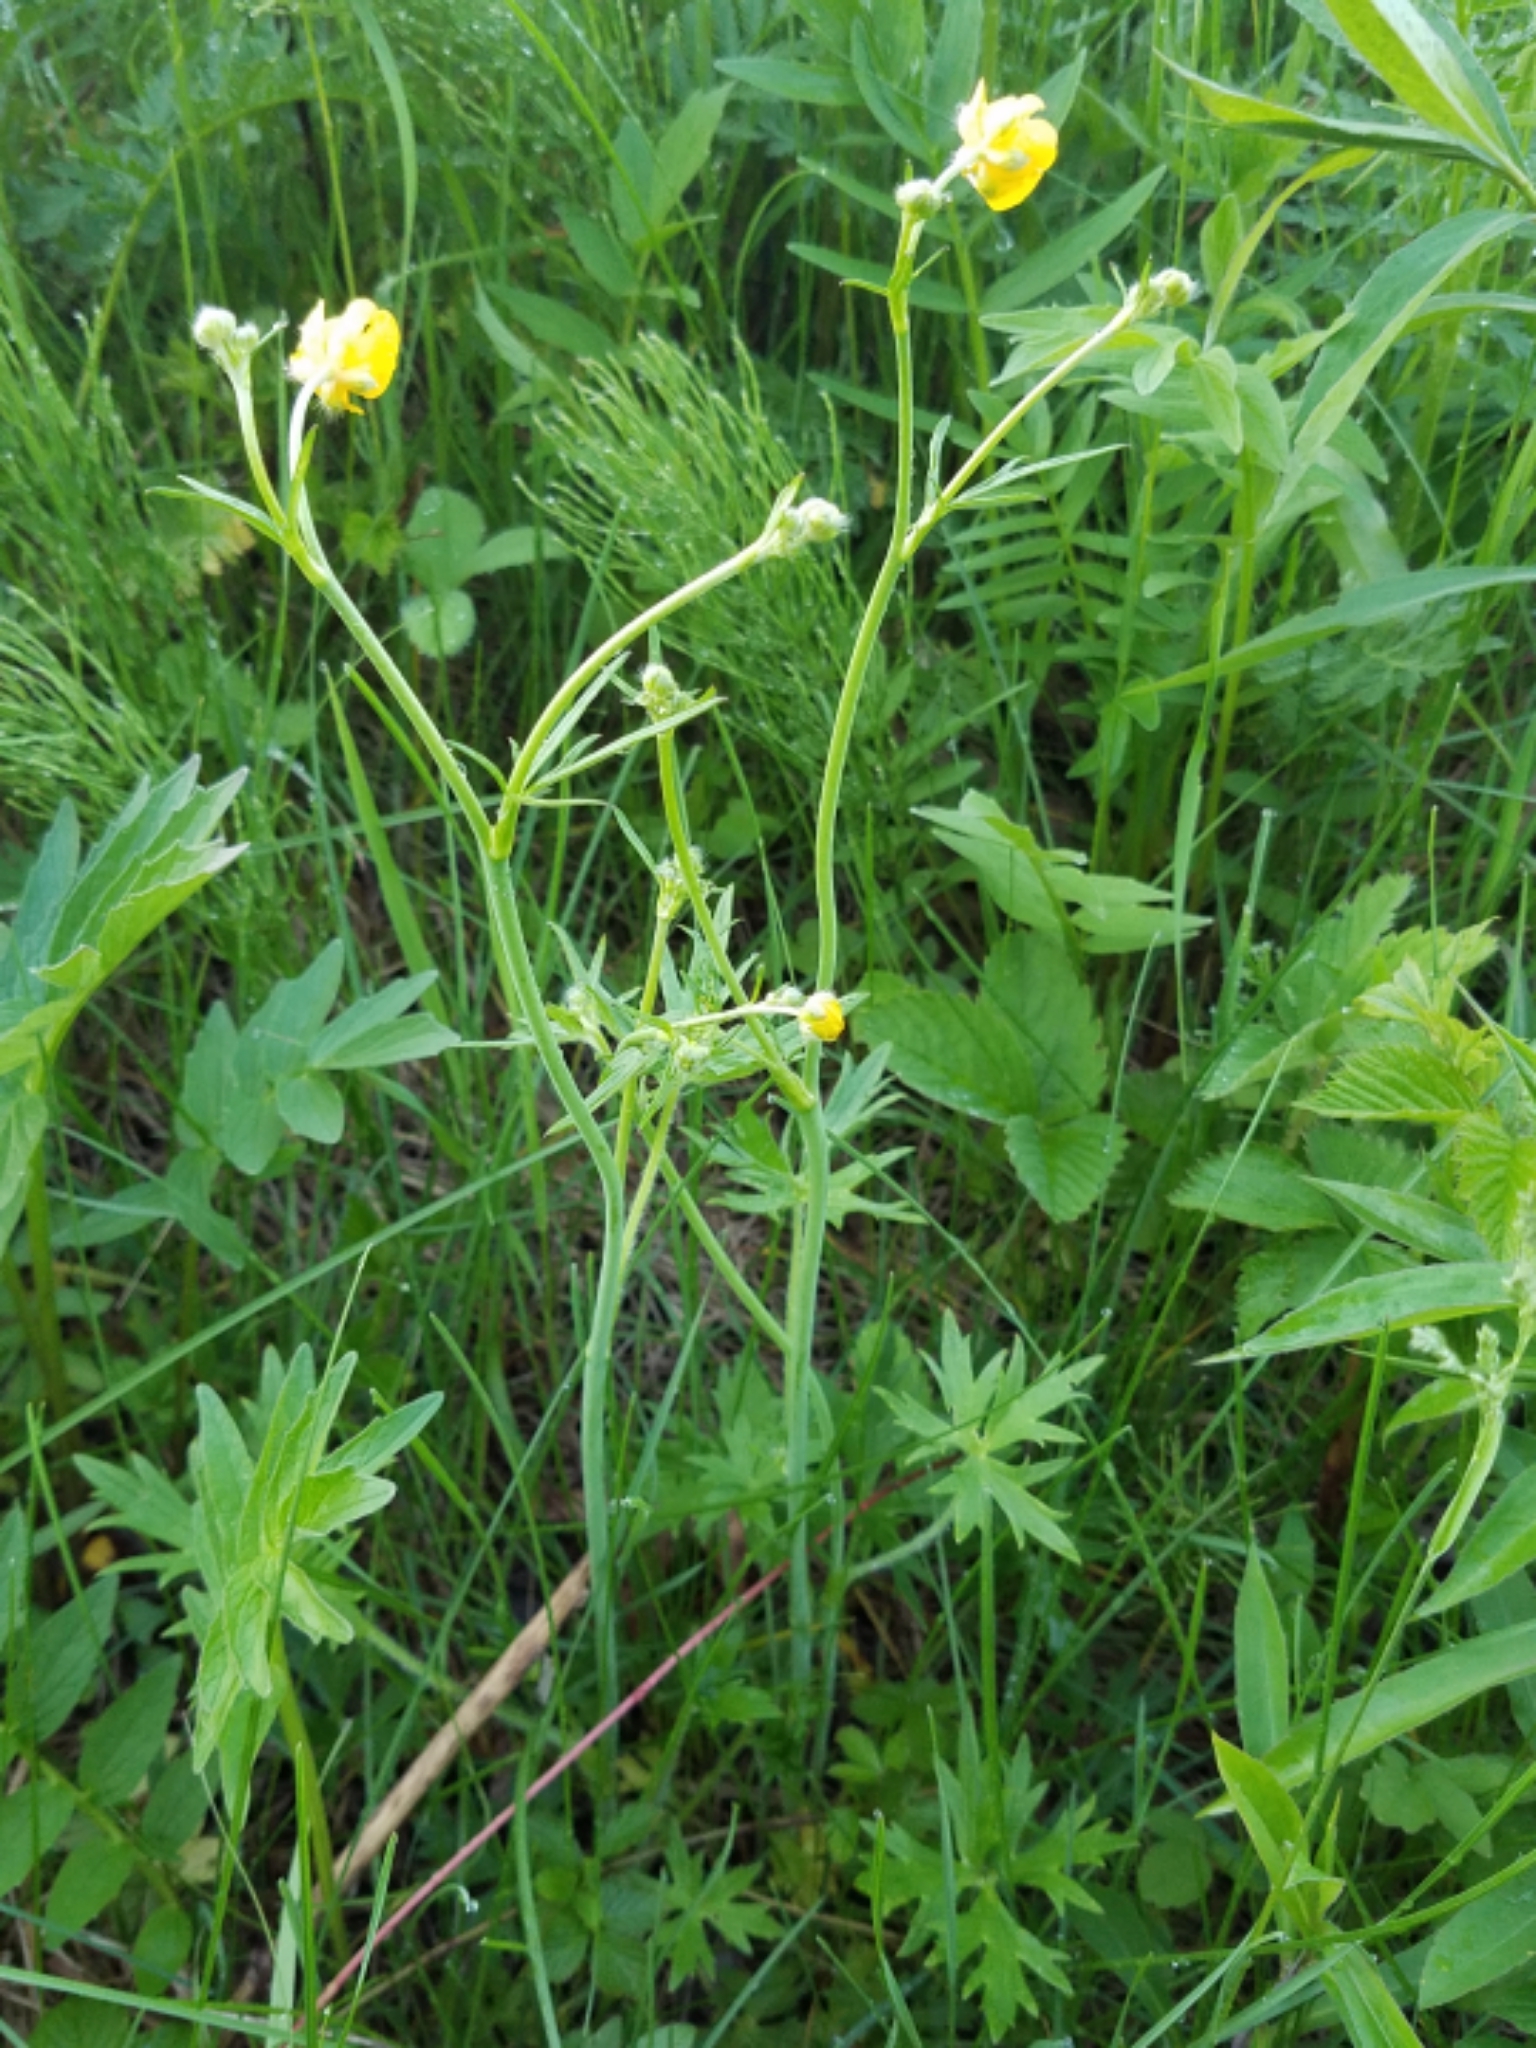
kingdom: Plantae
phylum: Tracheophyta
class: Magnoliopsida
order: Ranunculales
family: Ranunculaceae
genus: Ranunculus
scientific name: Ranunculus acris
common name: Meadow buttercup
